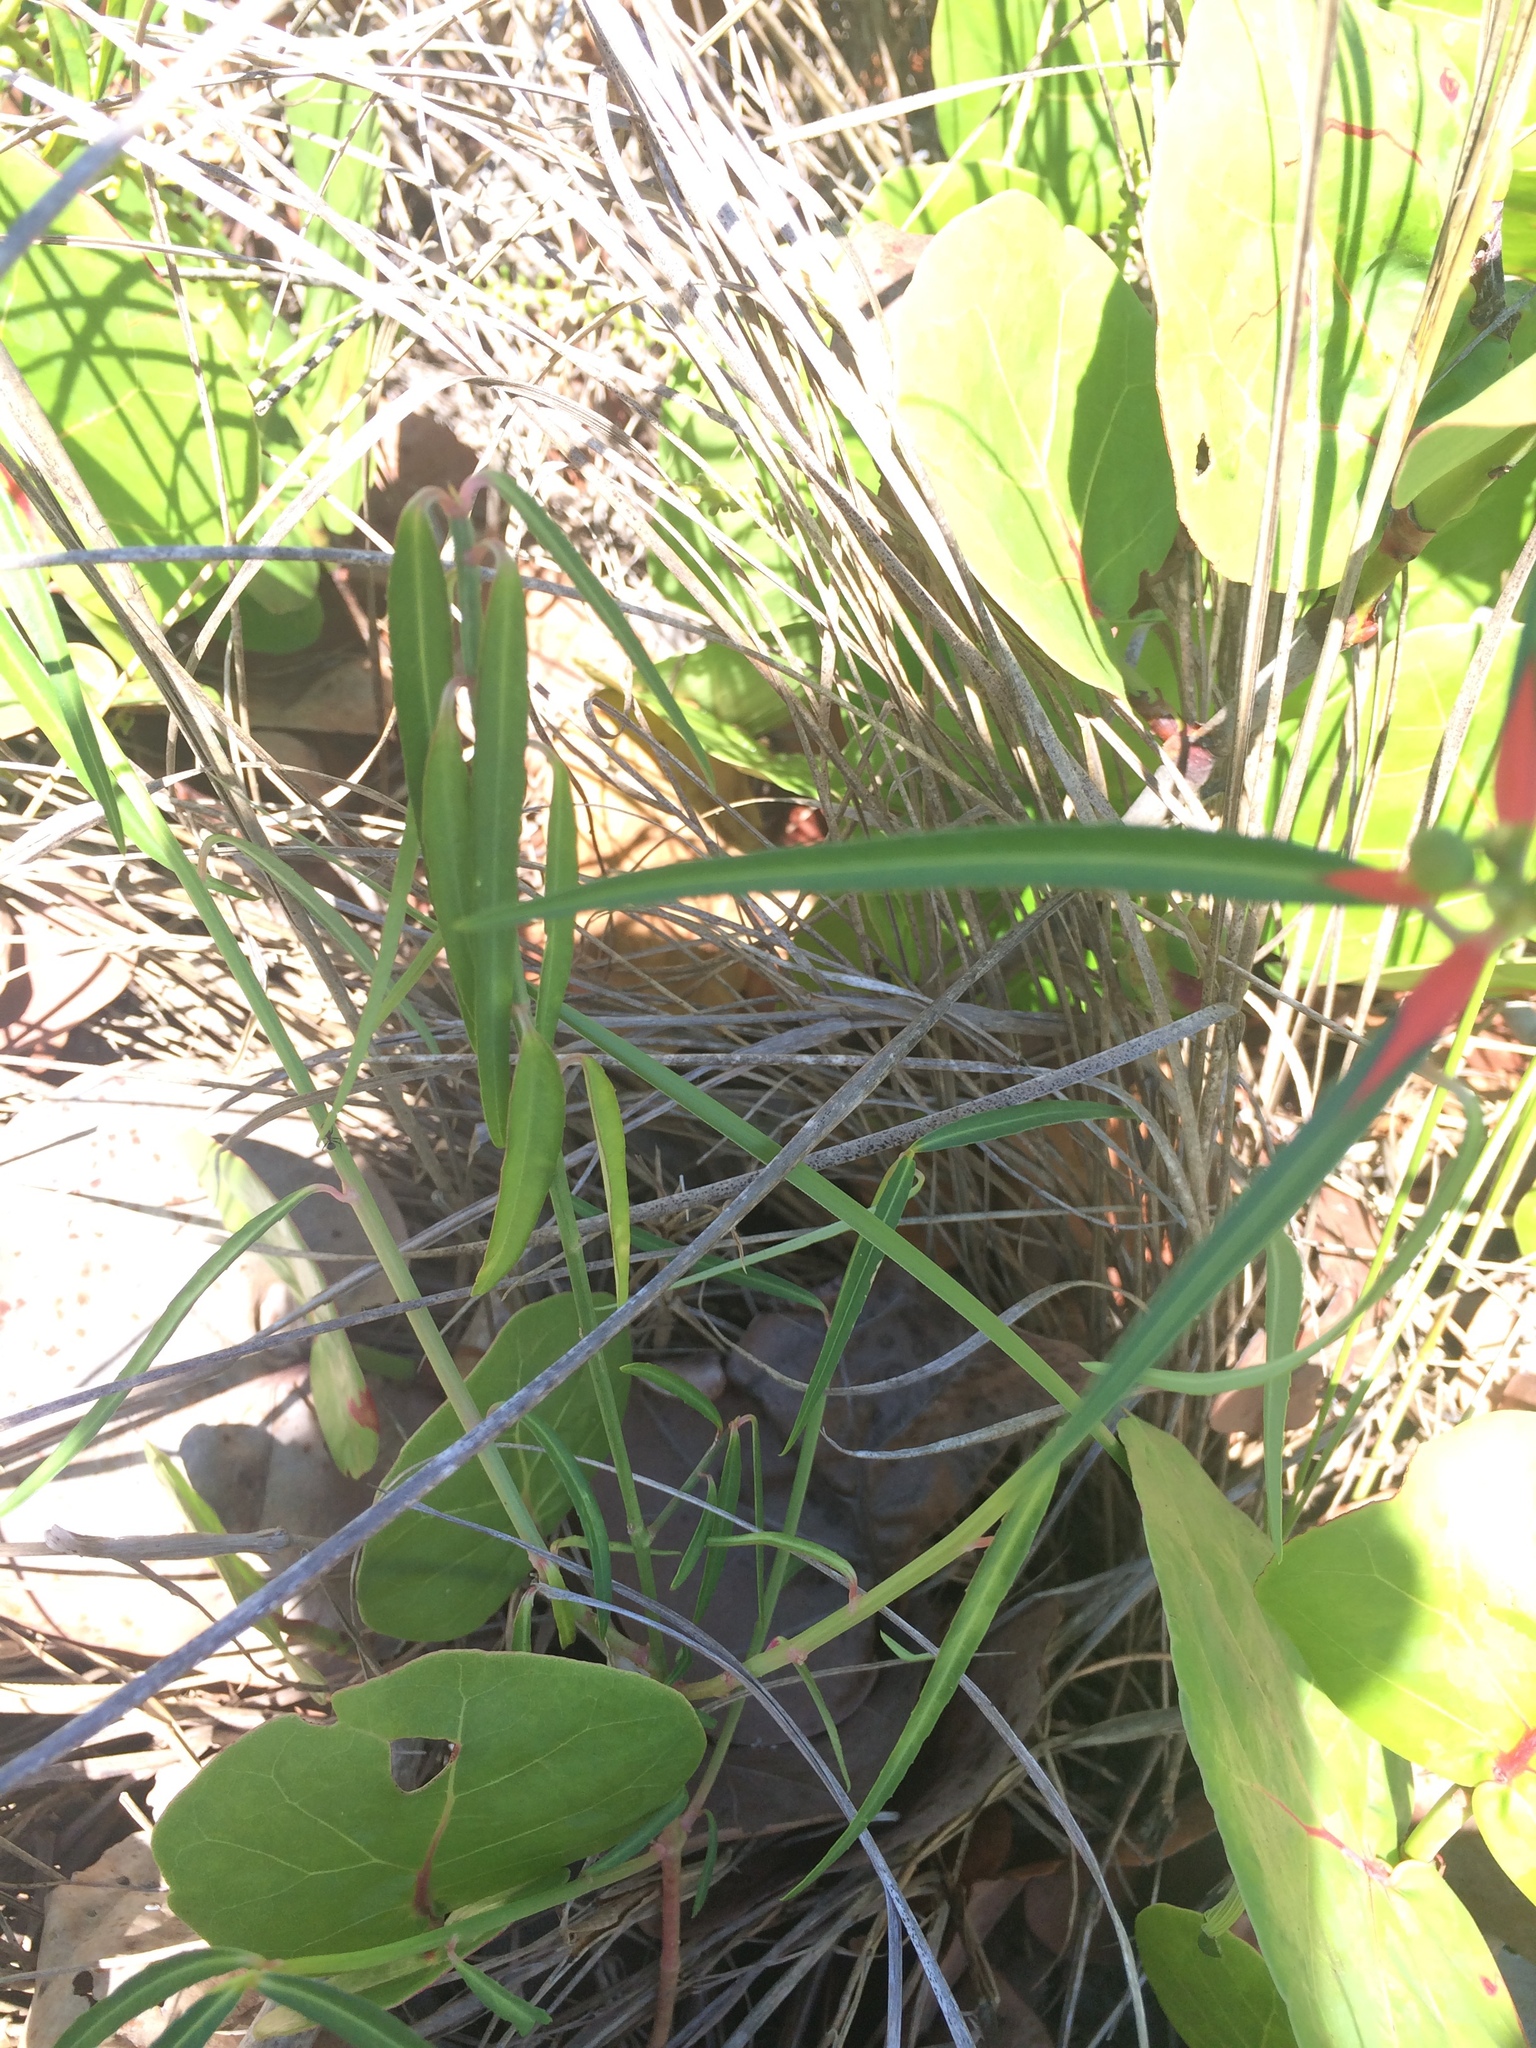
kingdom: Plantae
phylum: Tracheophyta
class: Magnoliopsida
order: Malpighiales
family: Euphorbiaceae
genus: Euphorbia
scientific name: Euphorbia heterophylla
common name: Mexican fireplant
